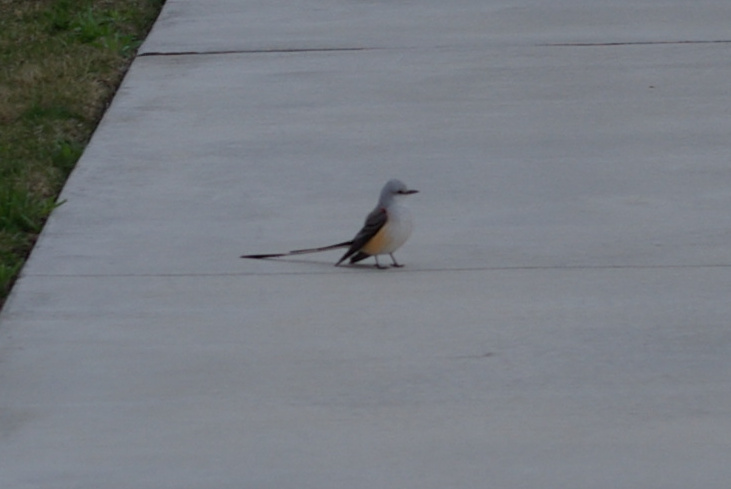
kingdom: Animalia
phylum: Chordata
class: Aves
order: Passeriformes
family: Tyrannidae
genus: Tyrannus
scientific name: Tyrannus forficatus
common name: Scissor-tailed flycatcher
